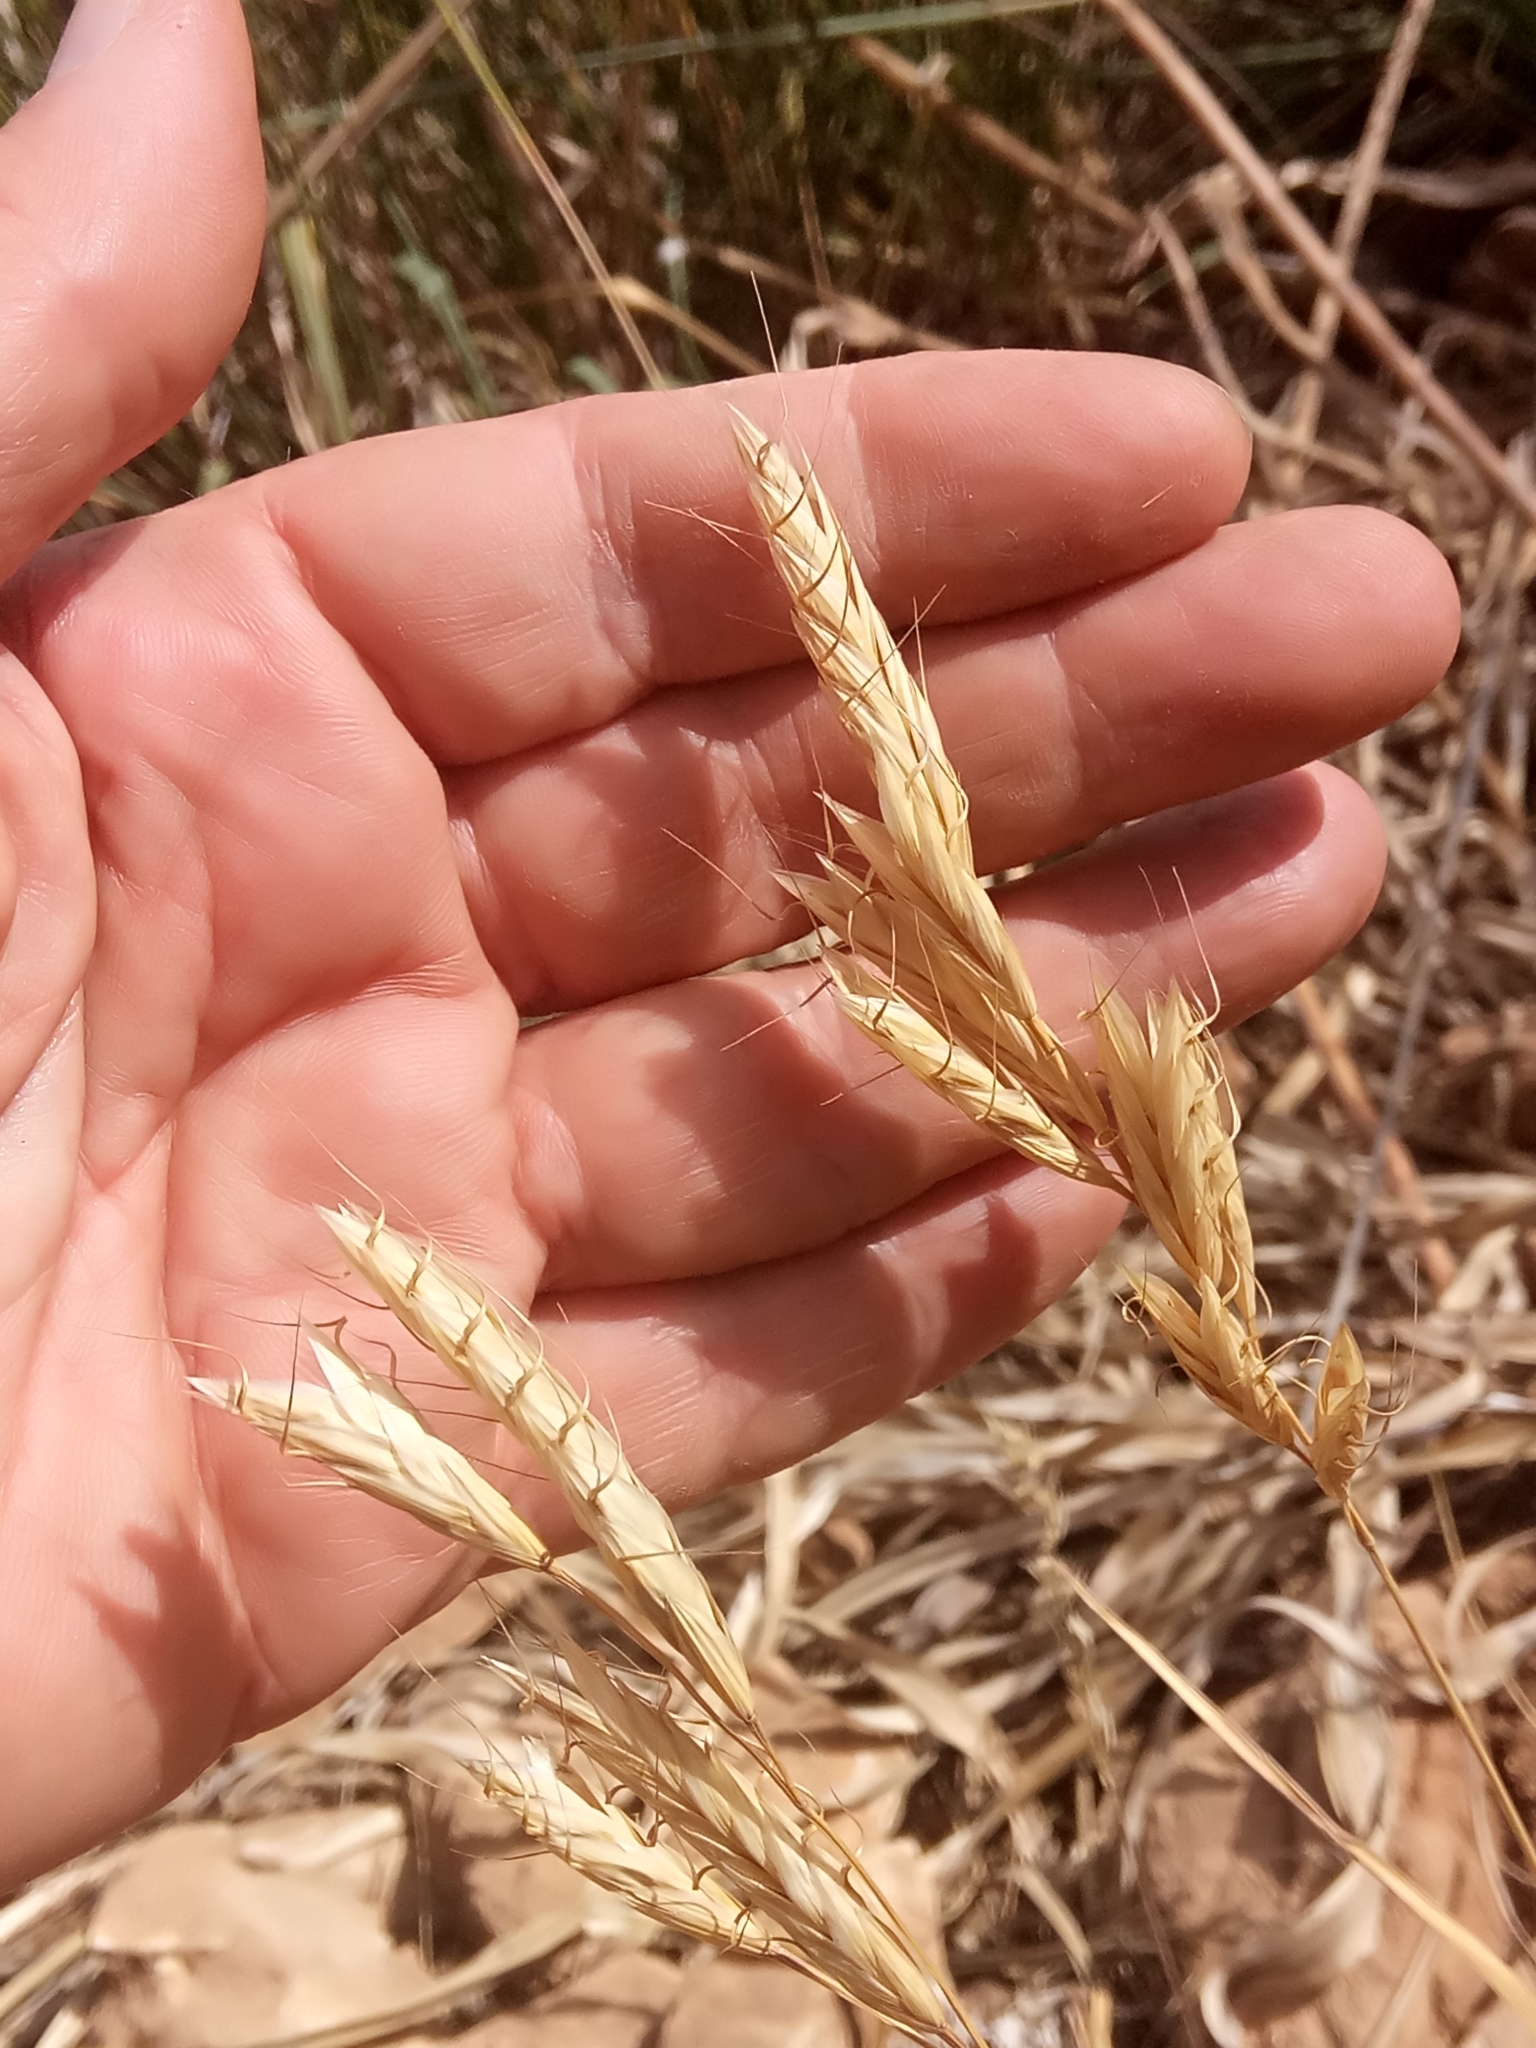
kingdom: Plantae
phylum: Tracheophyta
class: Liliopsida
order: Poales
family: Poaceae
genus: Bromus
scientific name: Bromus lanceolatus
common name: Mediterranean brome
